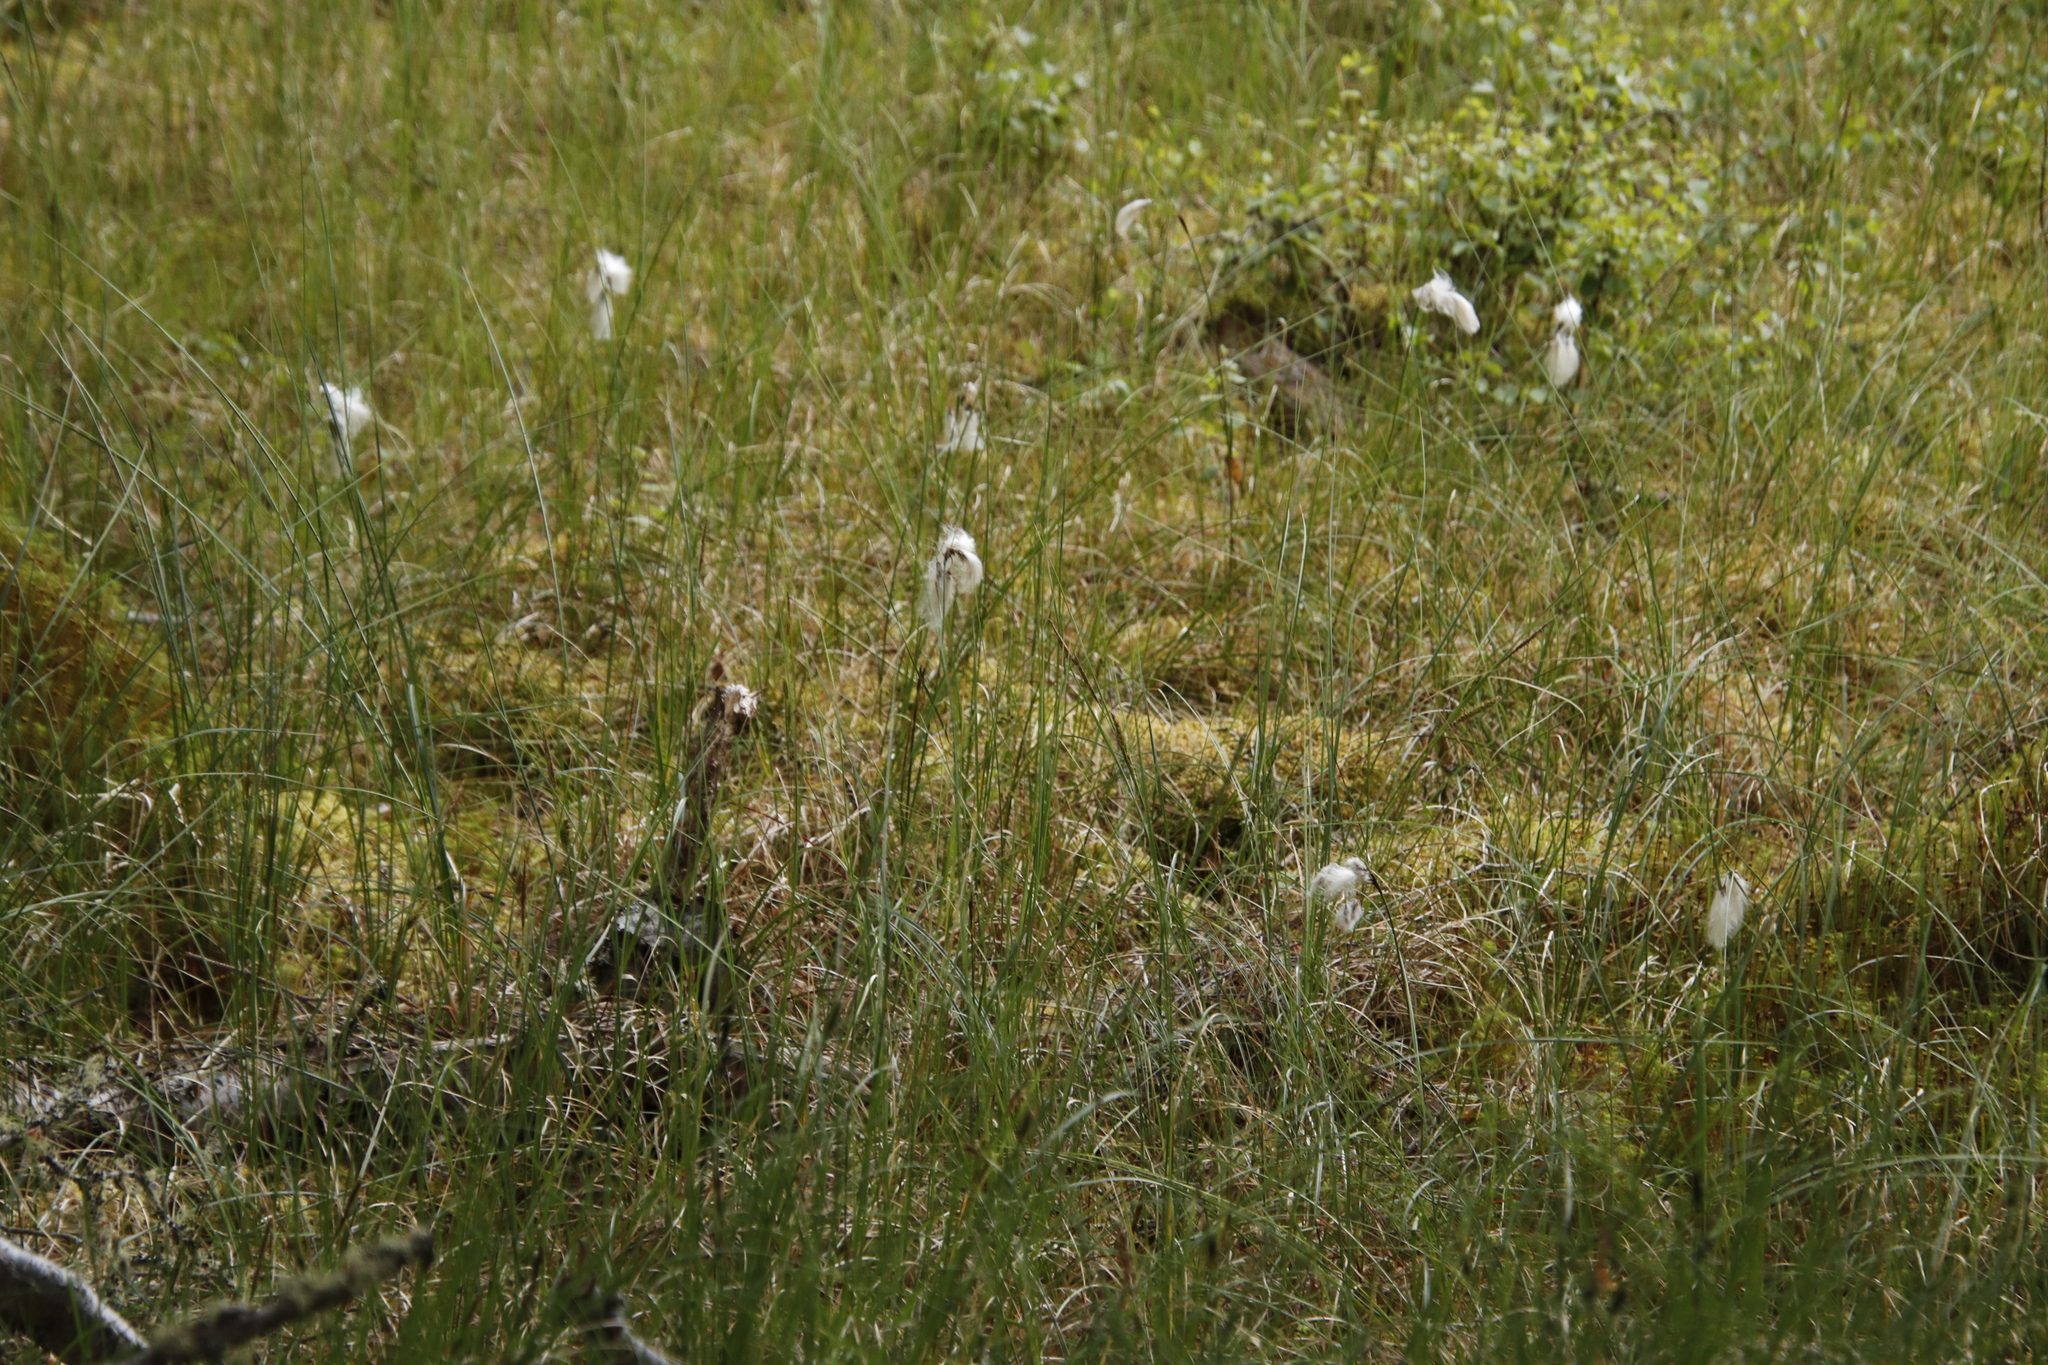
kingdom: Plantae
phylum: Tracheophyta
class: Liliopsida
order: Poales
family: Cyperaceae
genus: Eriophorum
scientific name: Eriophorum angustifolium
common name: Common cottongrass
